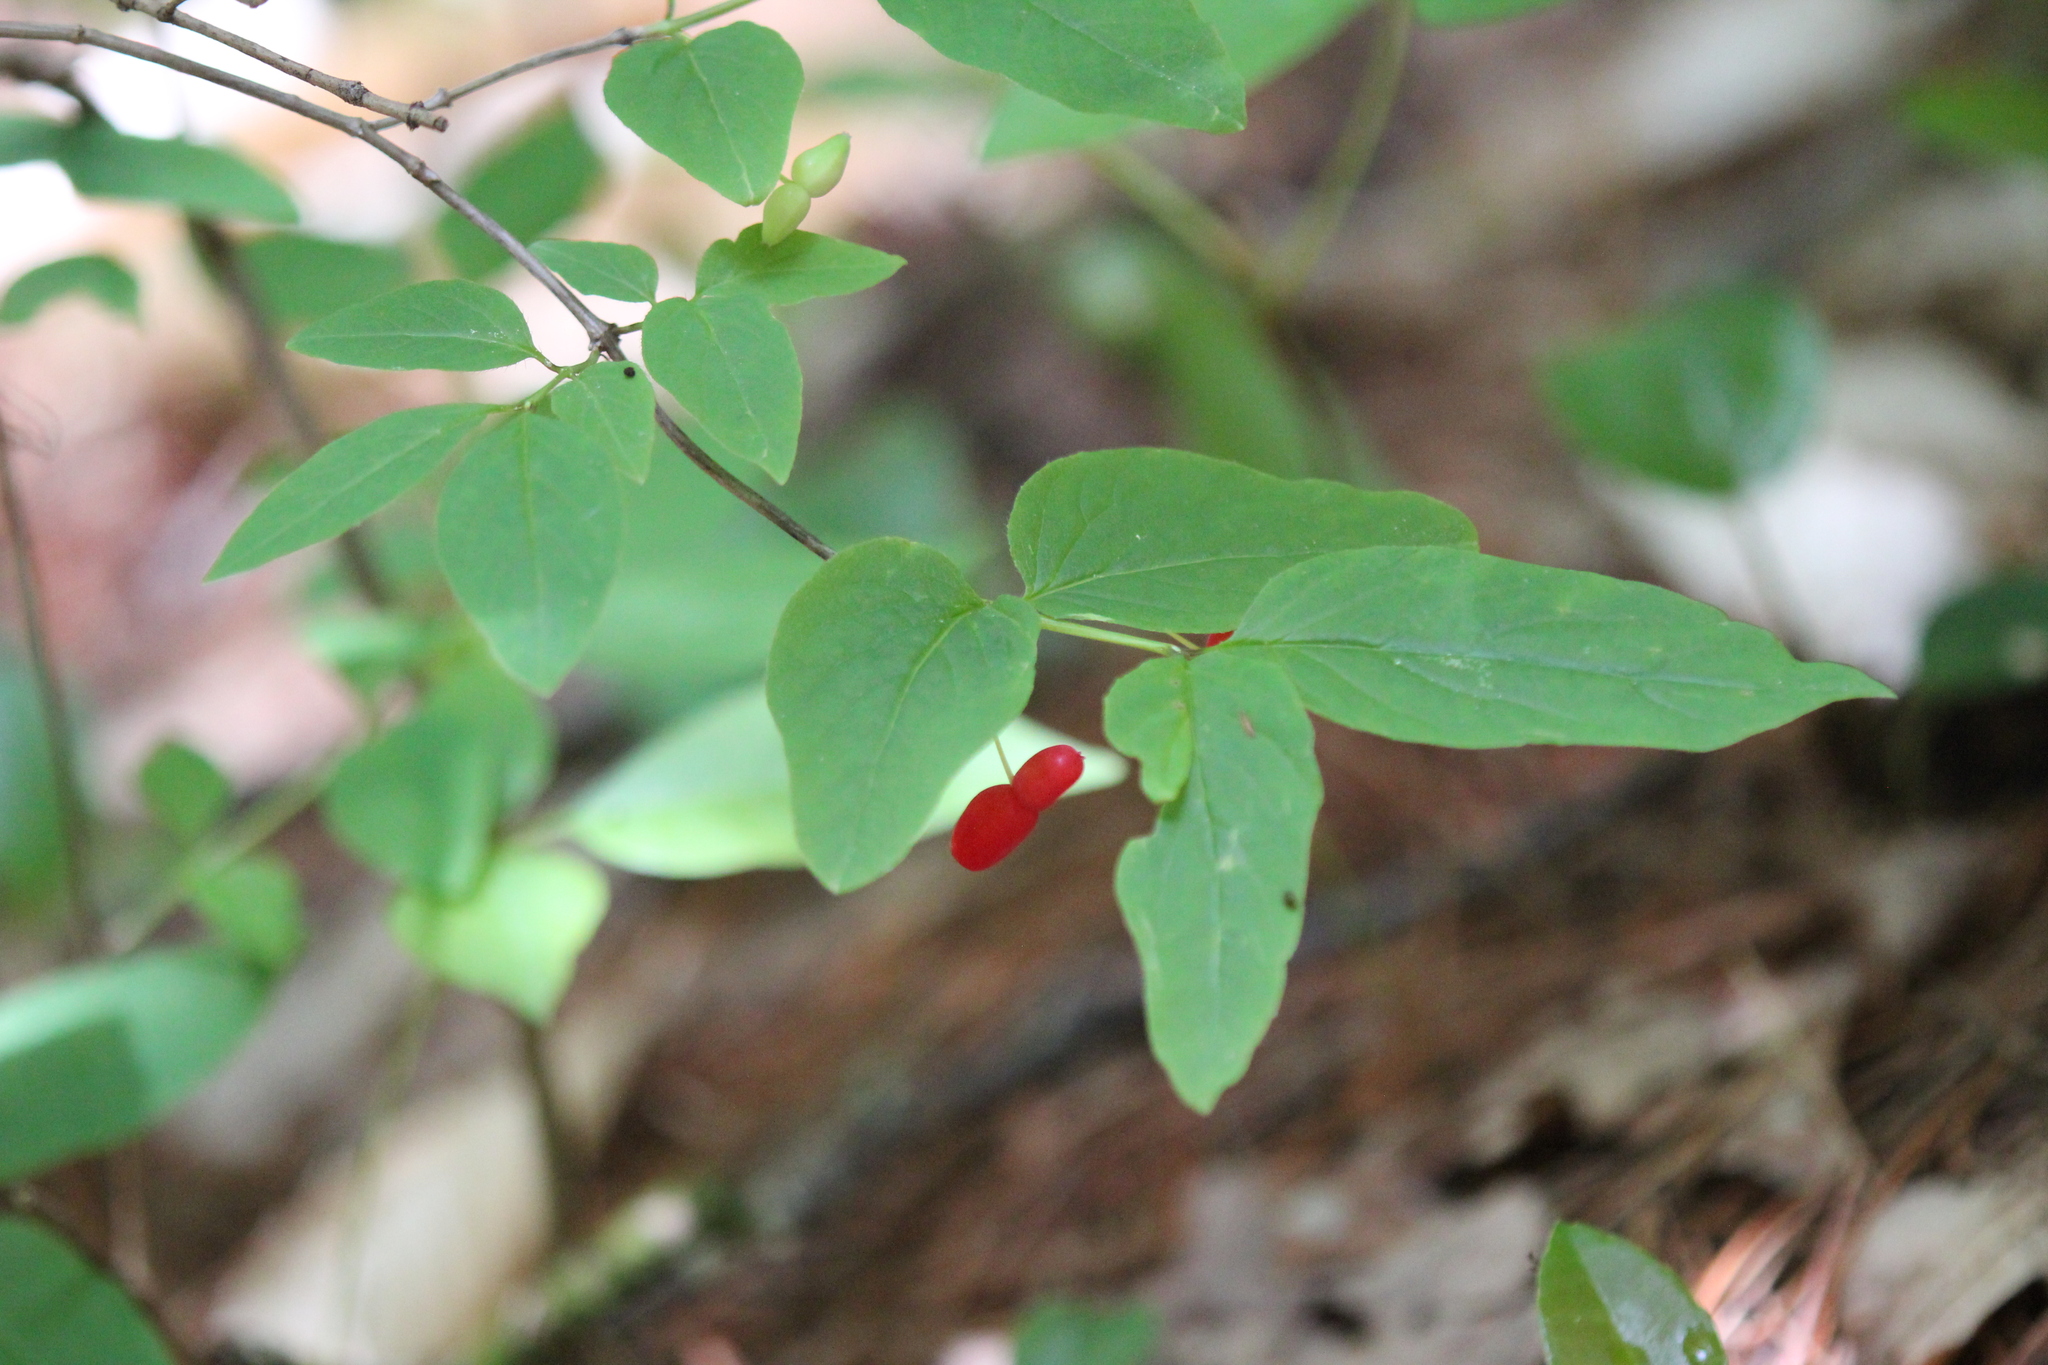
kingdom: Plantae
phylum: Tracheophyta
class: Magnoliopsida
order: Dipsacales
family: Caprifoliaceae
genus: Lonicera
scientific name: Lonicera canadensis
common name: American fly-honeysuckle
